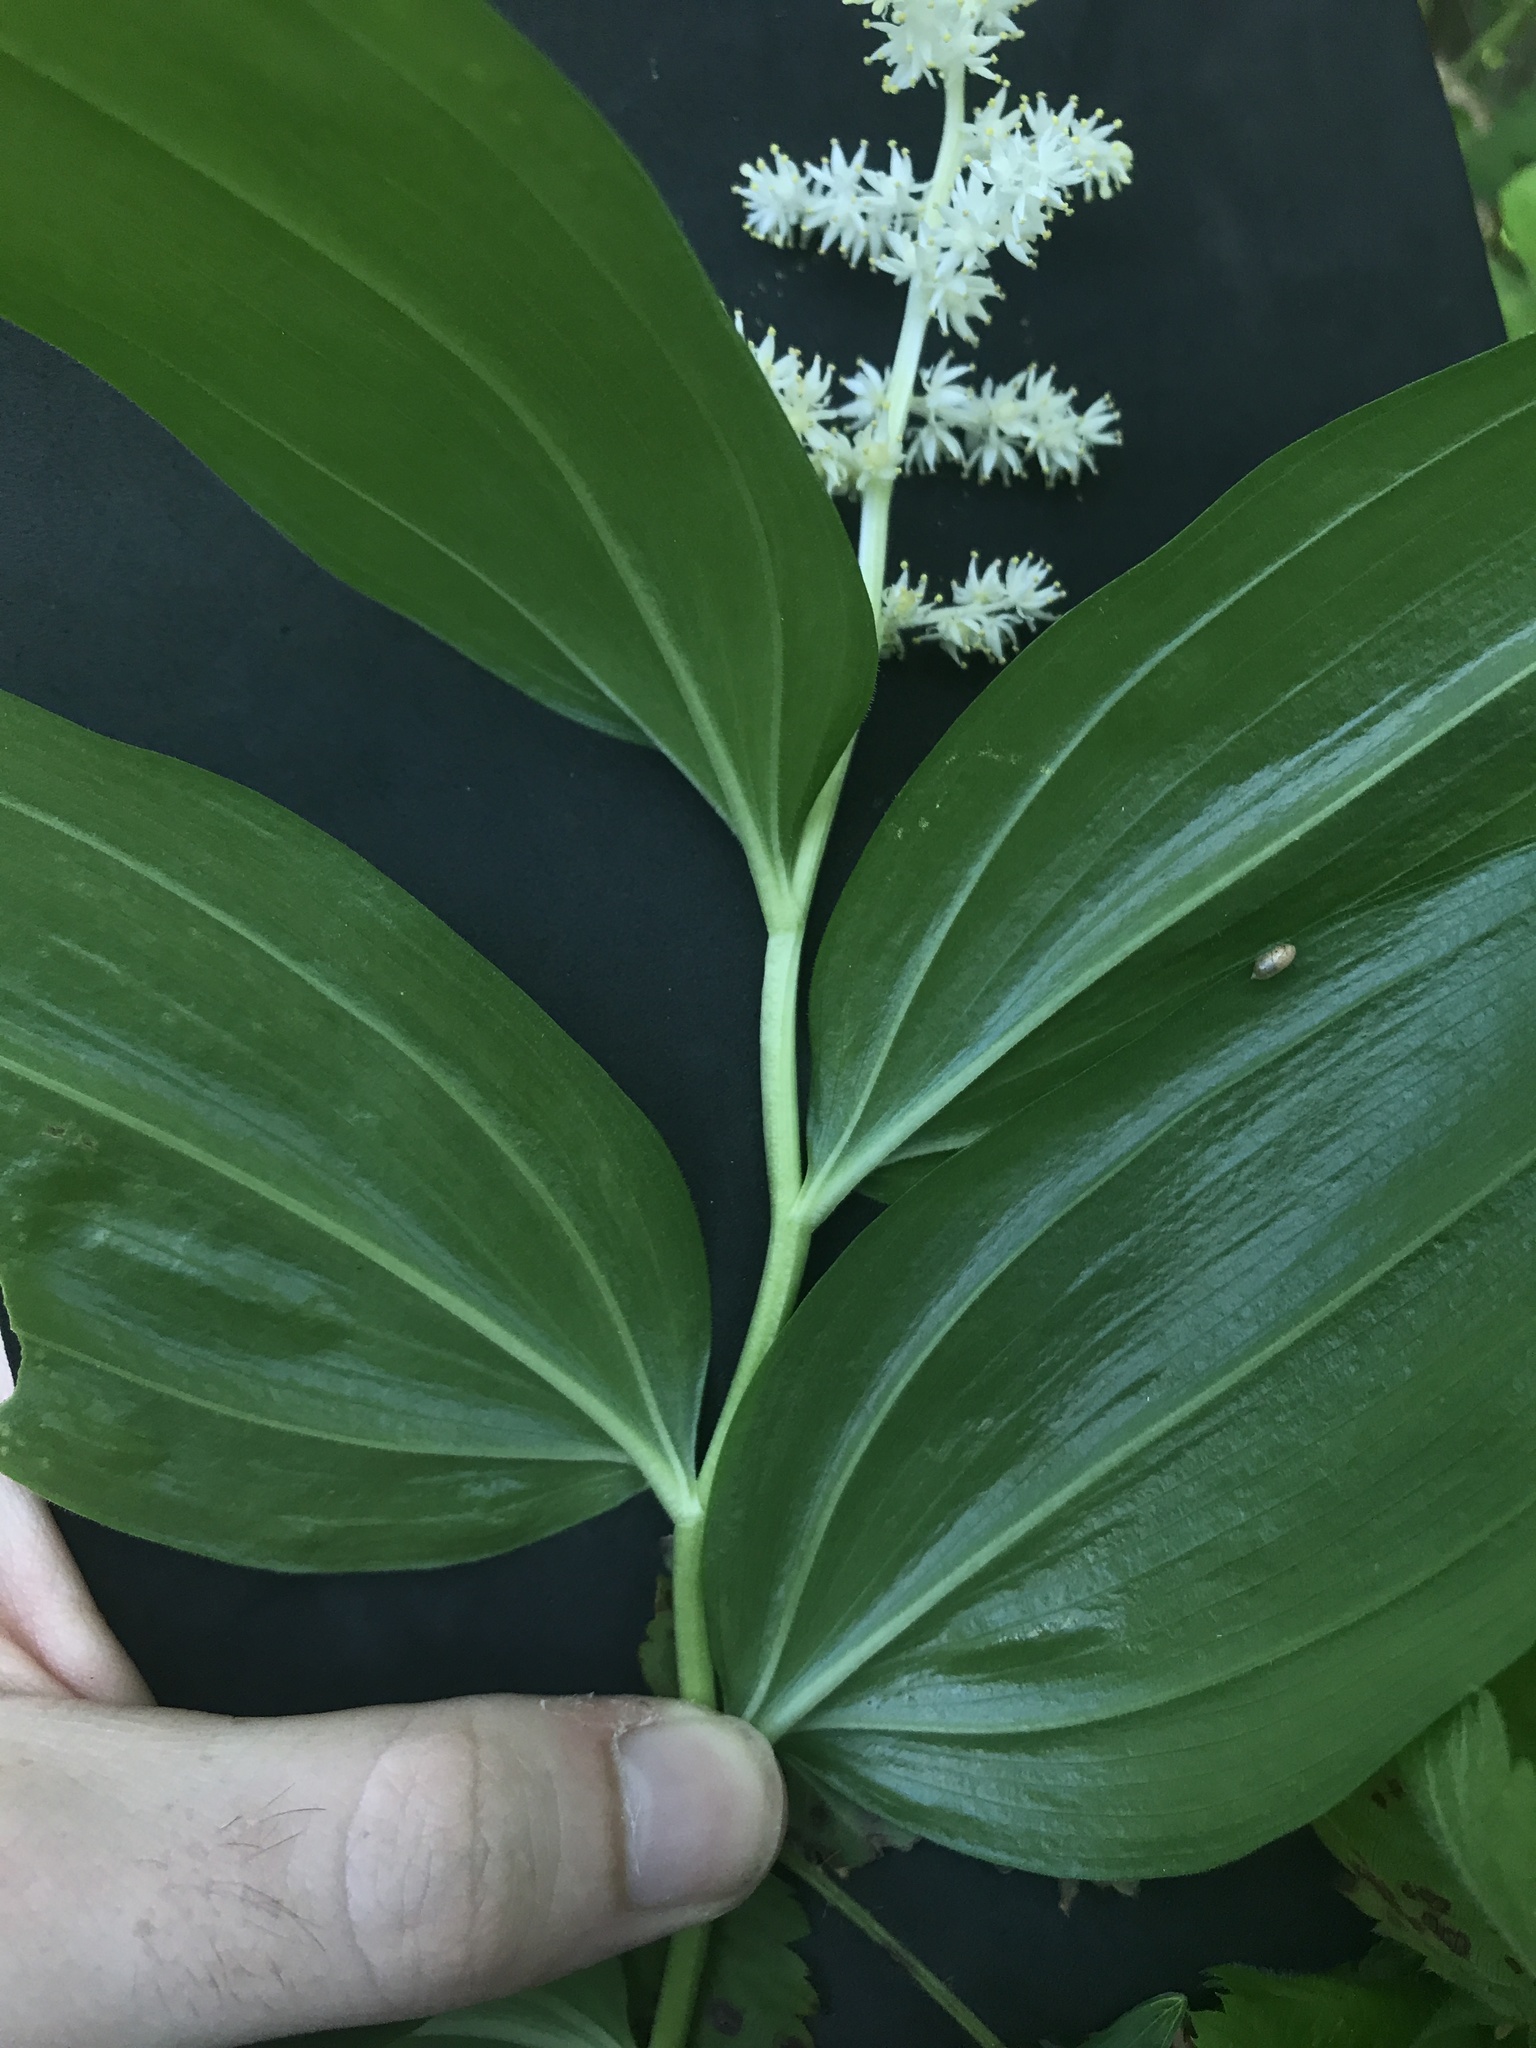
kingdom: Plantae
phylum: Tracheophyta
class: Liliopsida
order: Asparagales
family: Asparagaceae
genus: Maianthemum
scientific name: Maianthemum racemosum
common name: False spikenard
